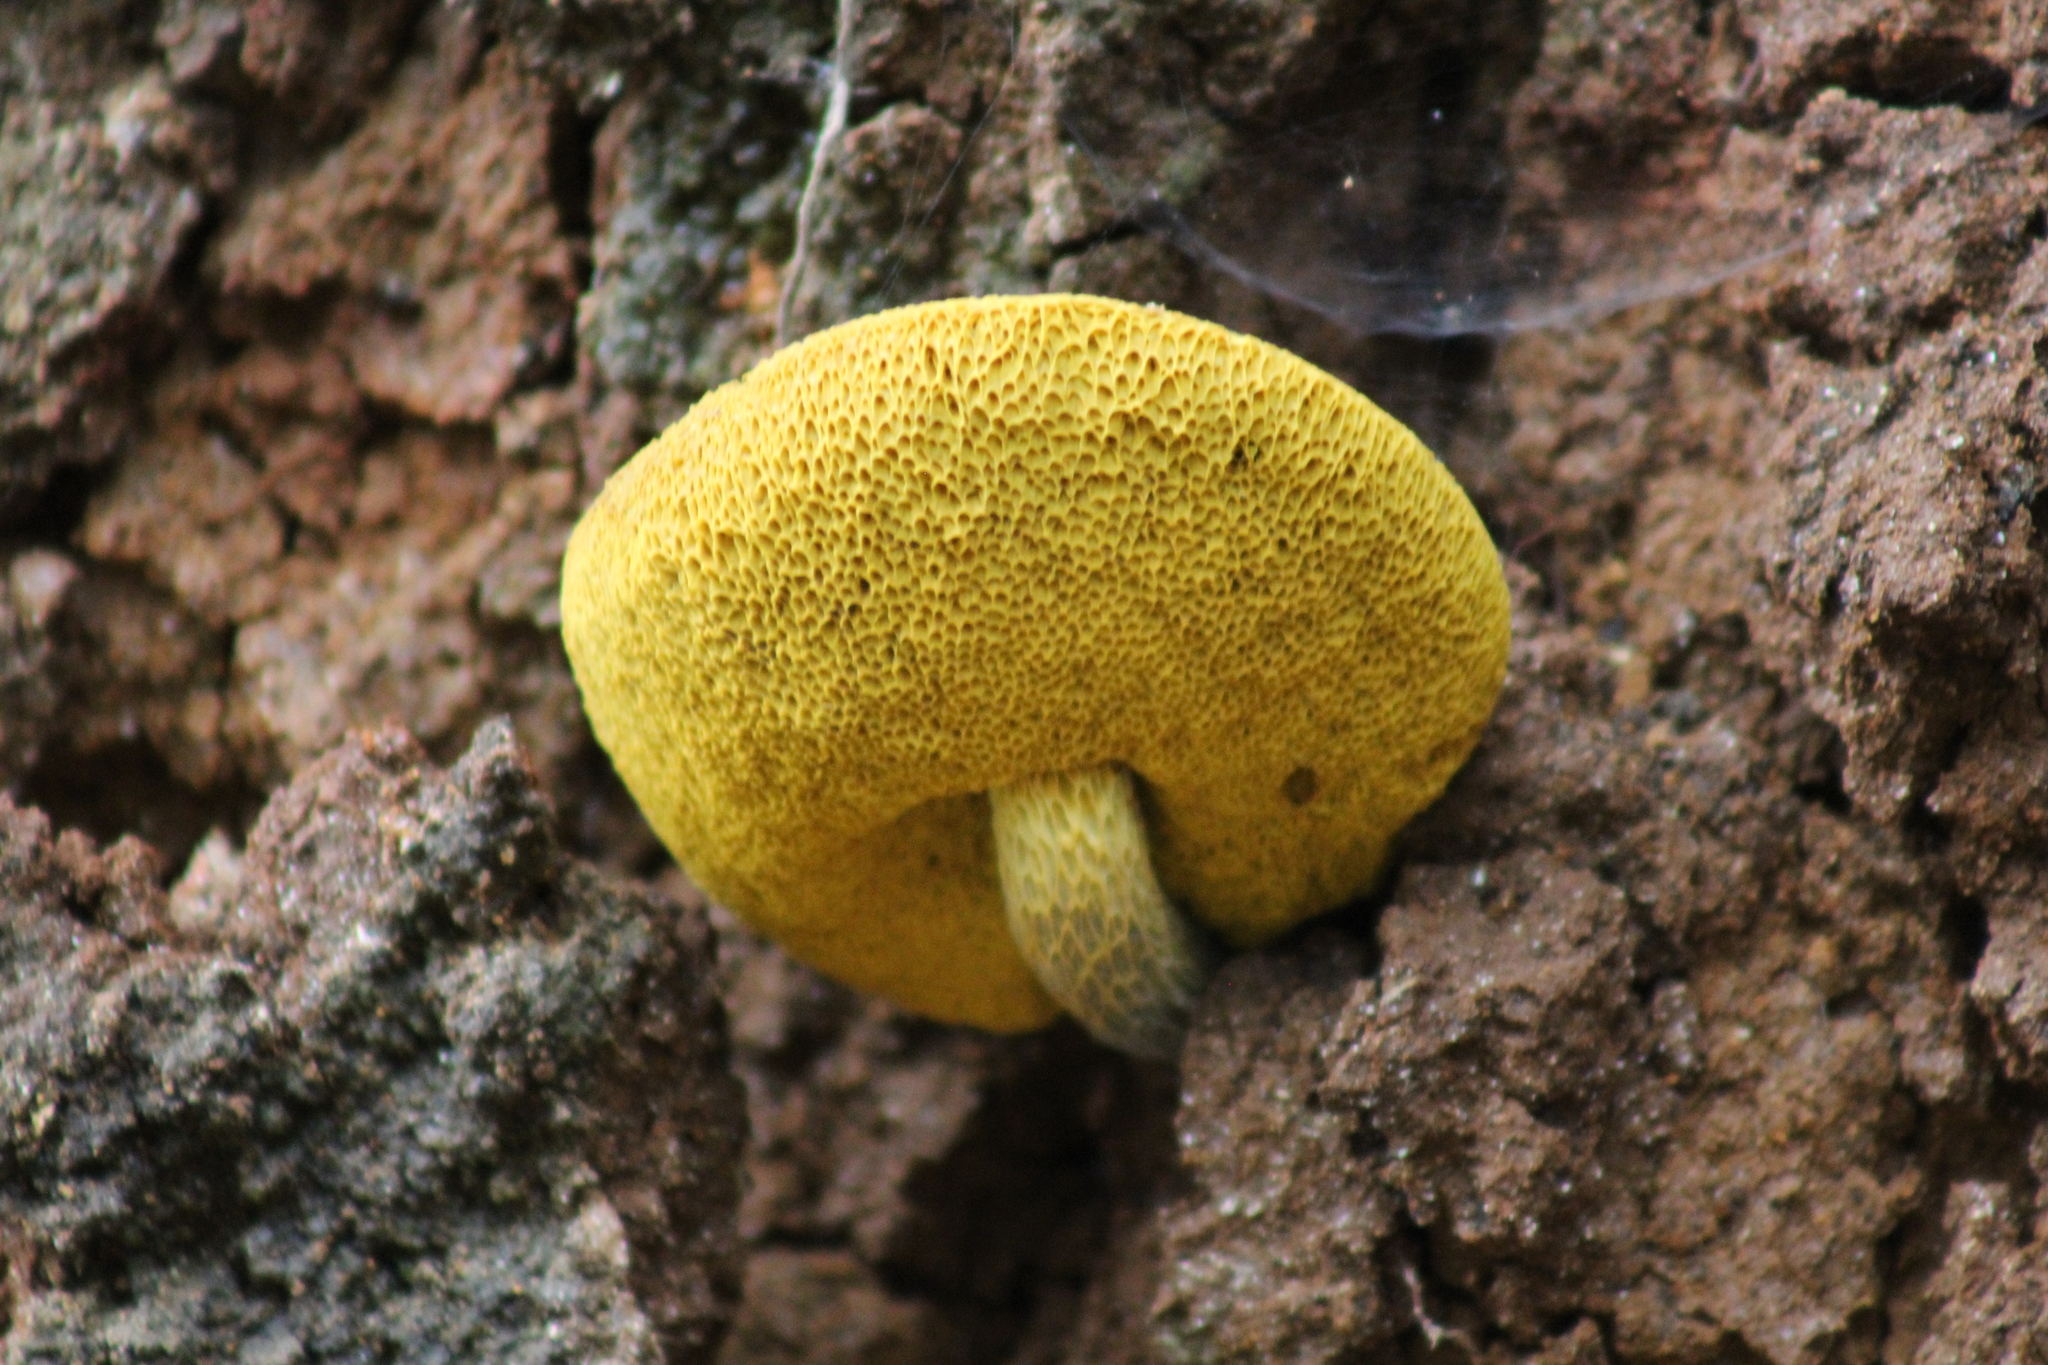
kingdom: Fungi
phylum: Basidiomycota
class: Agaricomycetes
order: Boletales
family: Boletaceae
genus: Retiboletus
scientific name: Retiboletus flavoniger
